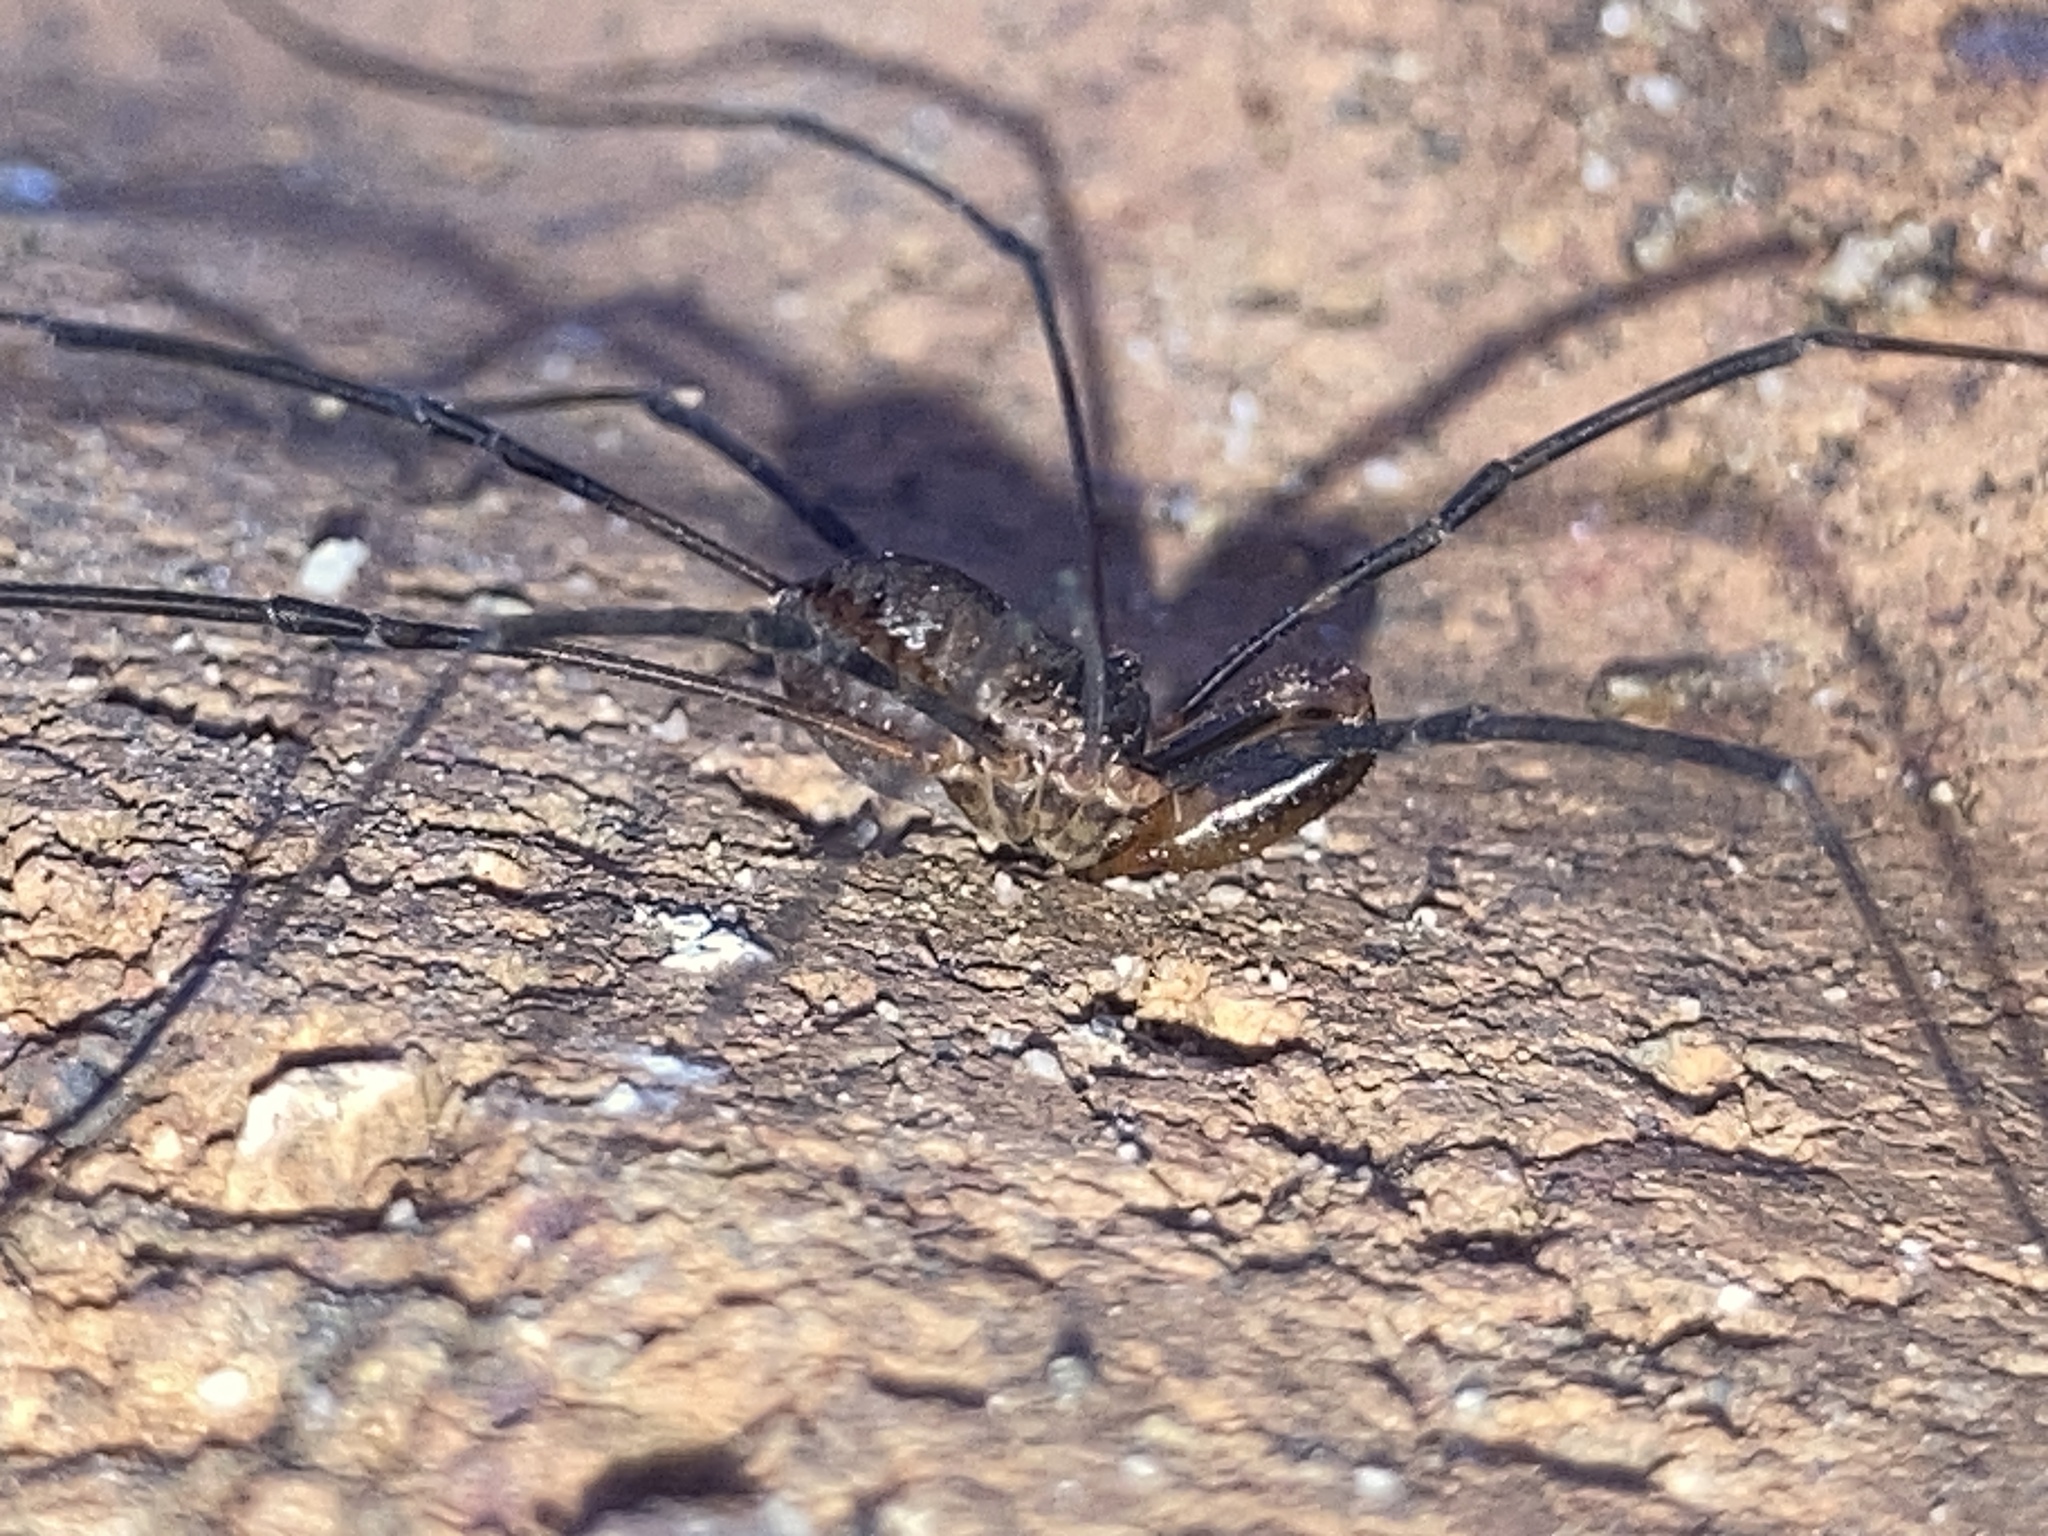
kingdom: Animalia
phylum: Arthropoda
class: Arachnida
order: Opiliones
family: Neopilionidae
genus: Megalopsalis
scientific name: Megalopsalis caeruleomontium
